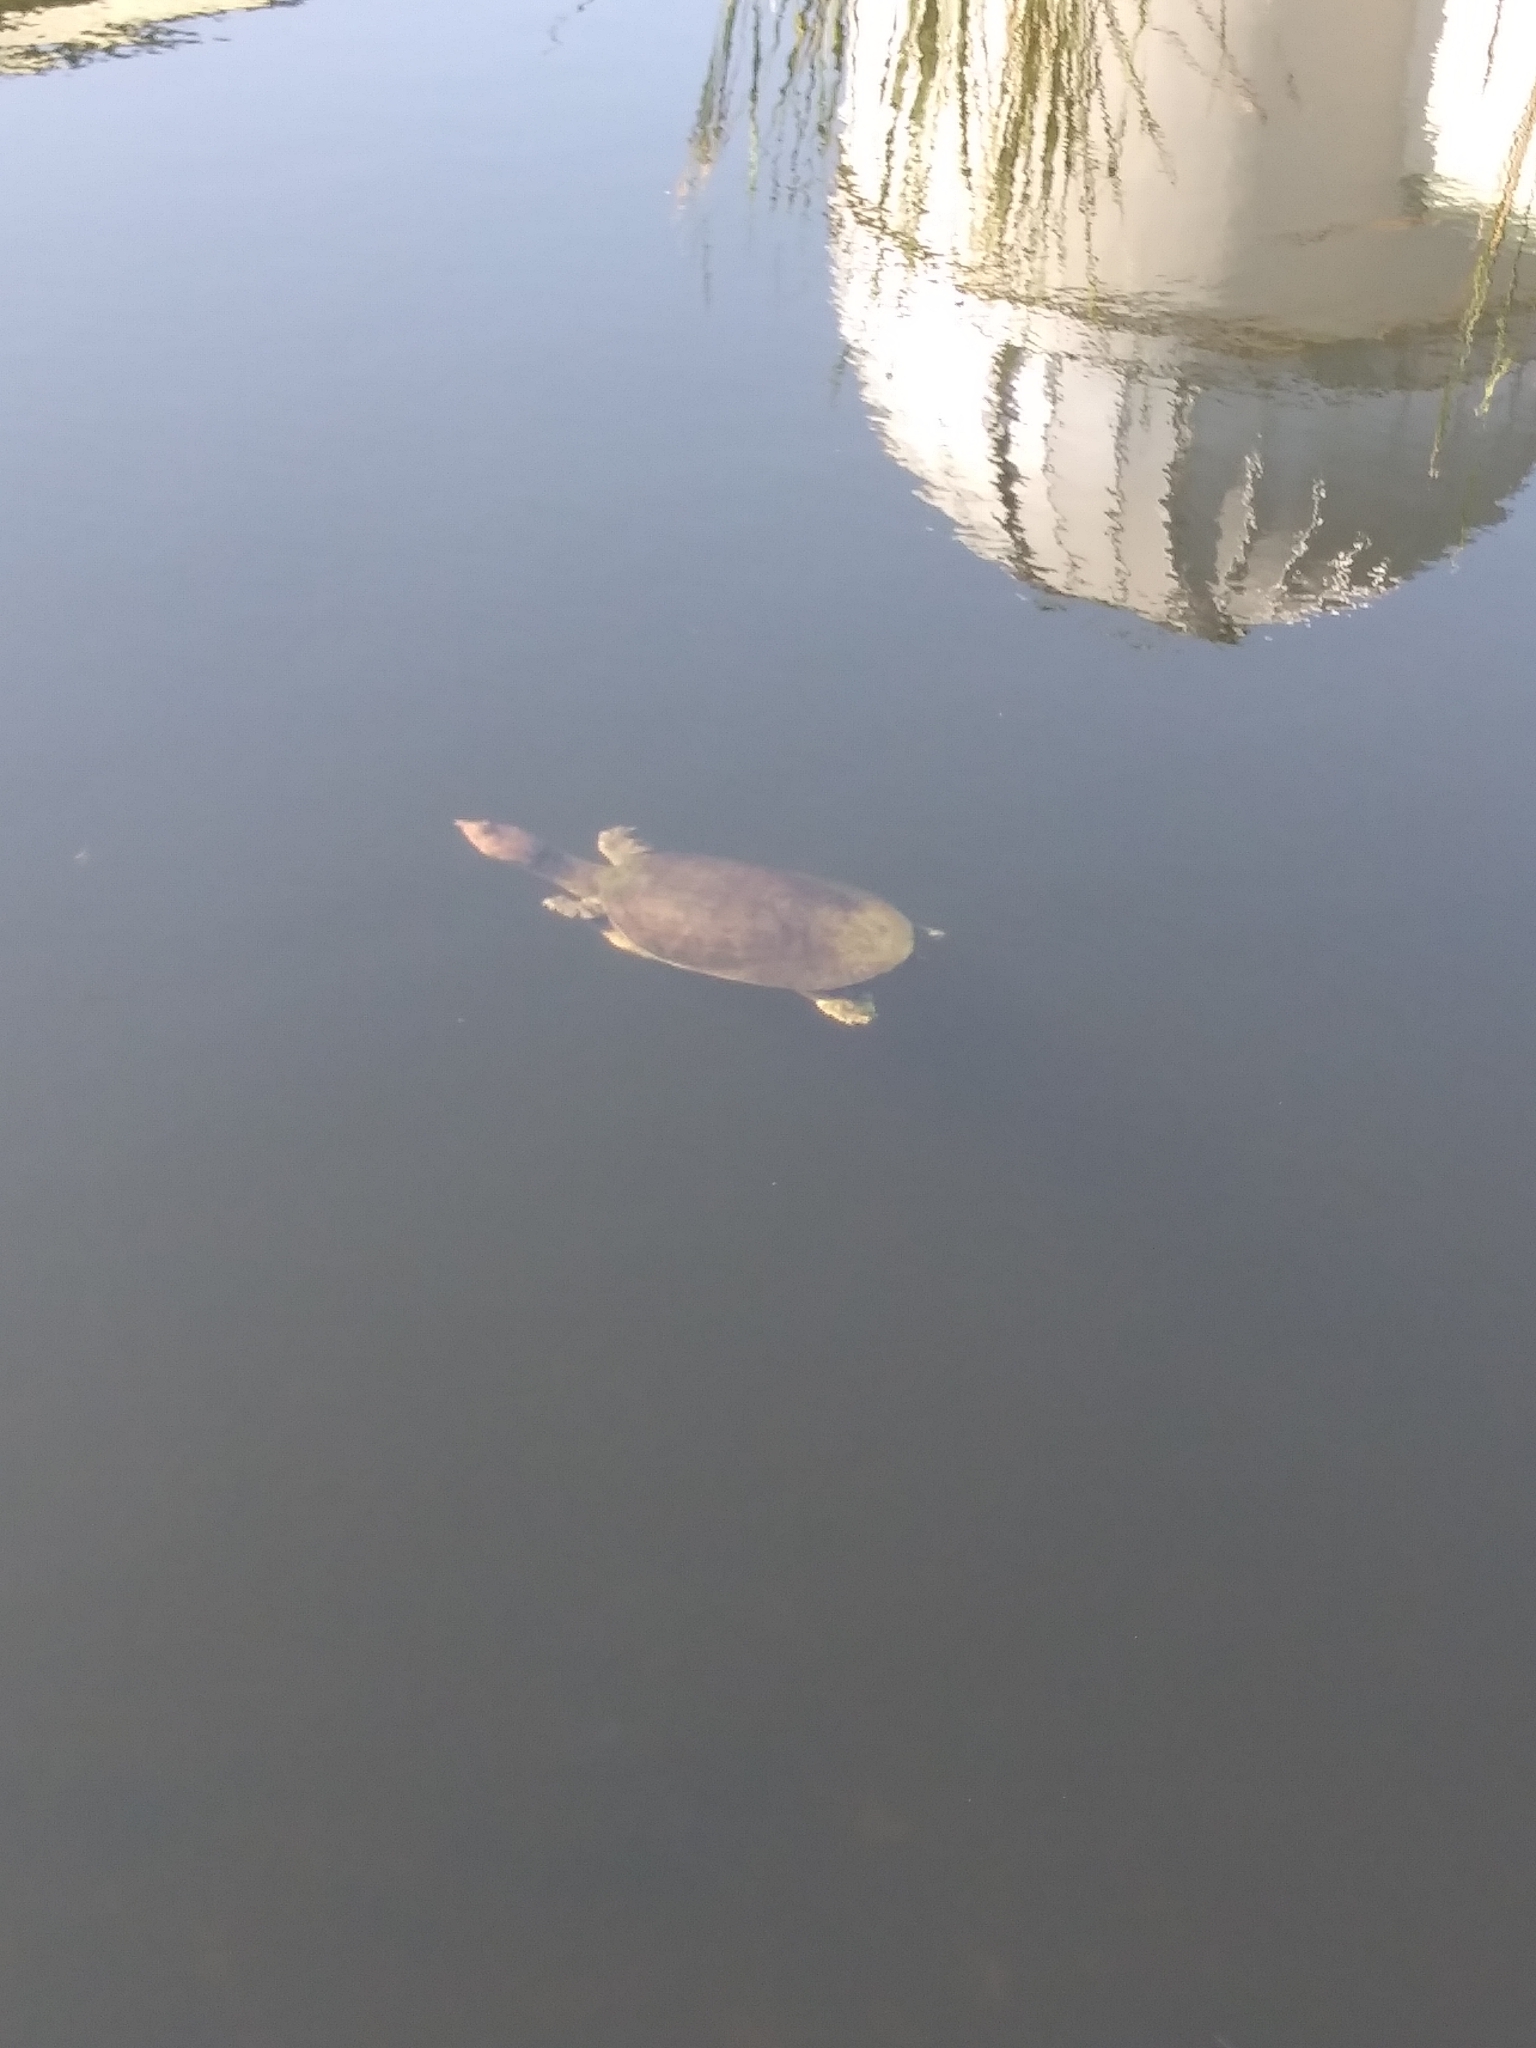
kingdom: Animalia
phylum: Chordata
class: Testudines
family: Trionychidae
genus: Apalone
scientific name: Apalone ferox
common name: Florida softshell turtle
